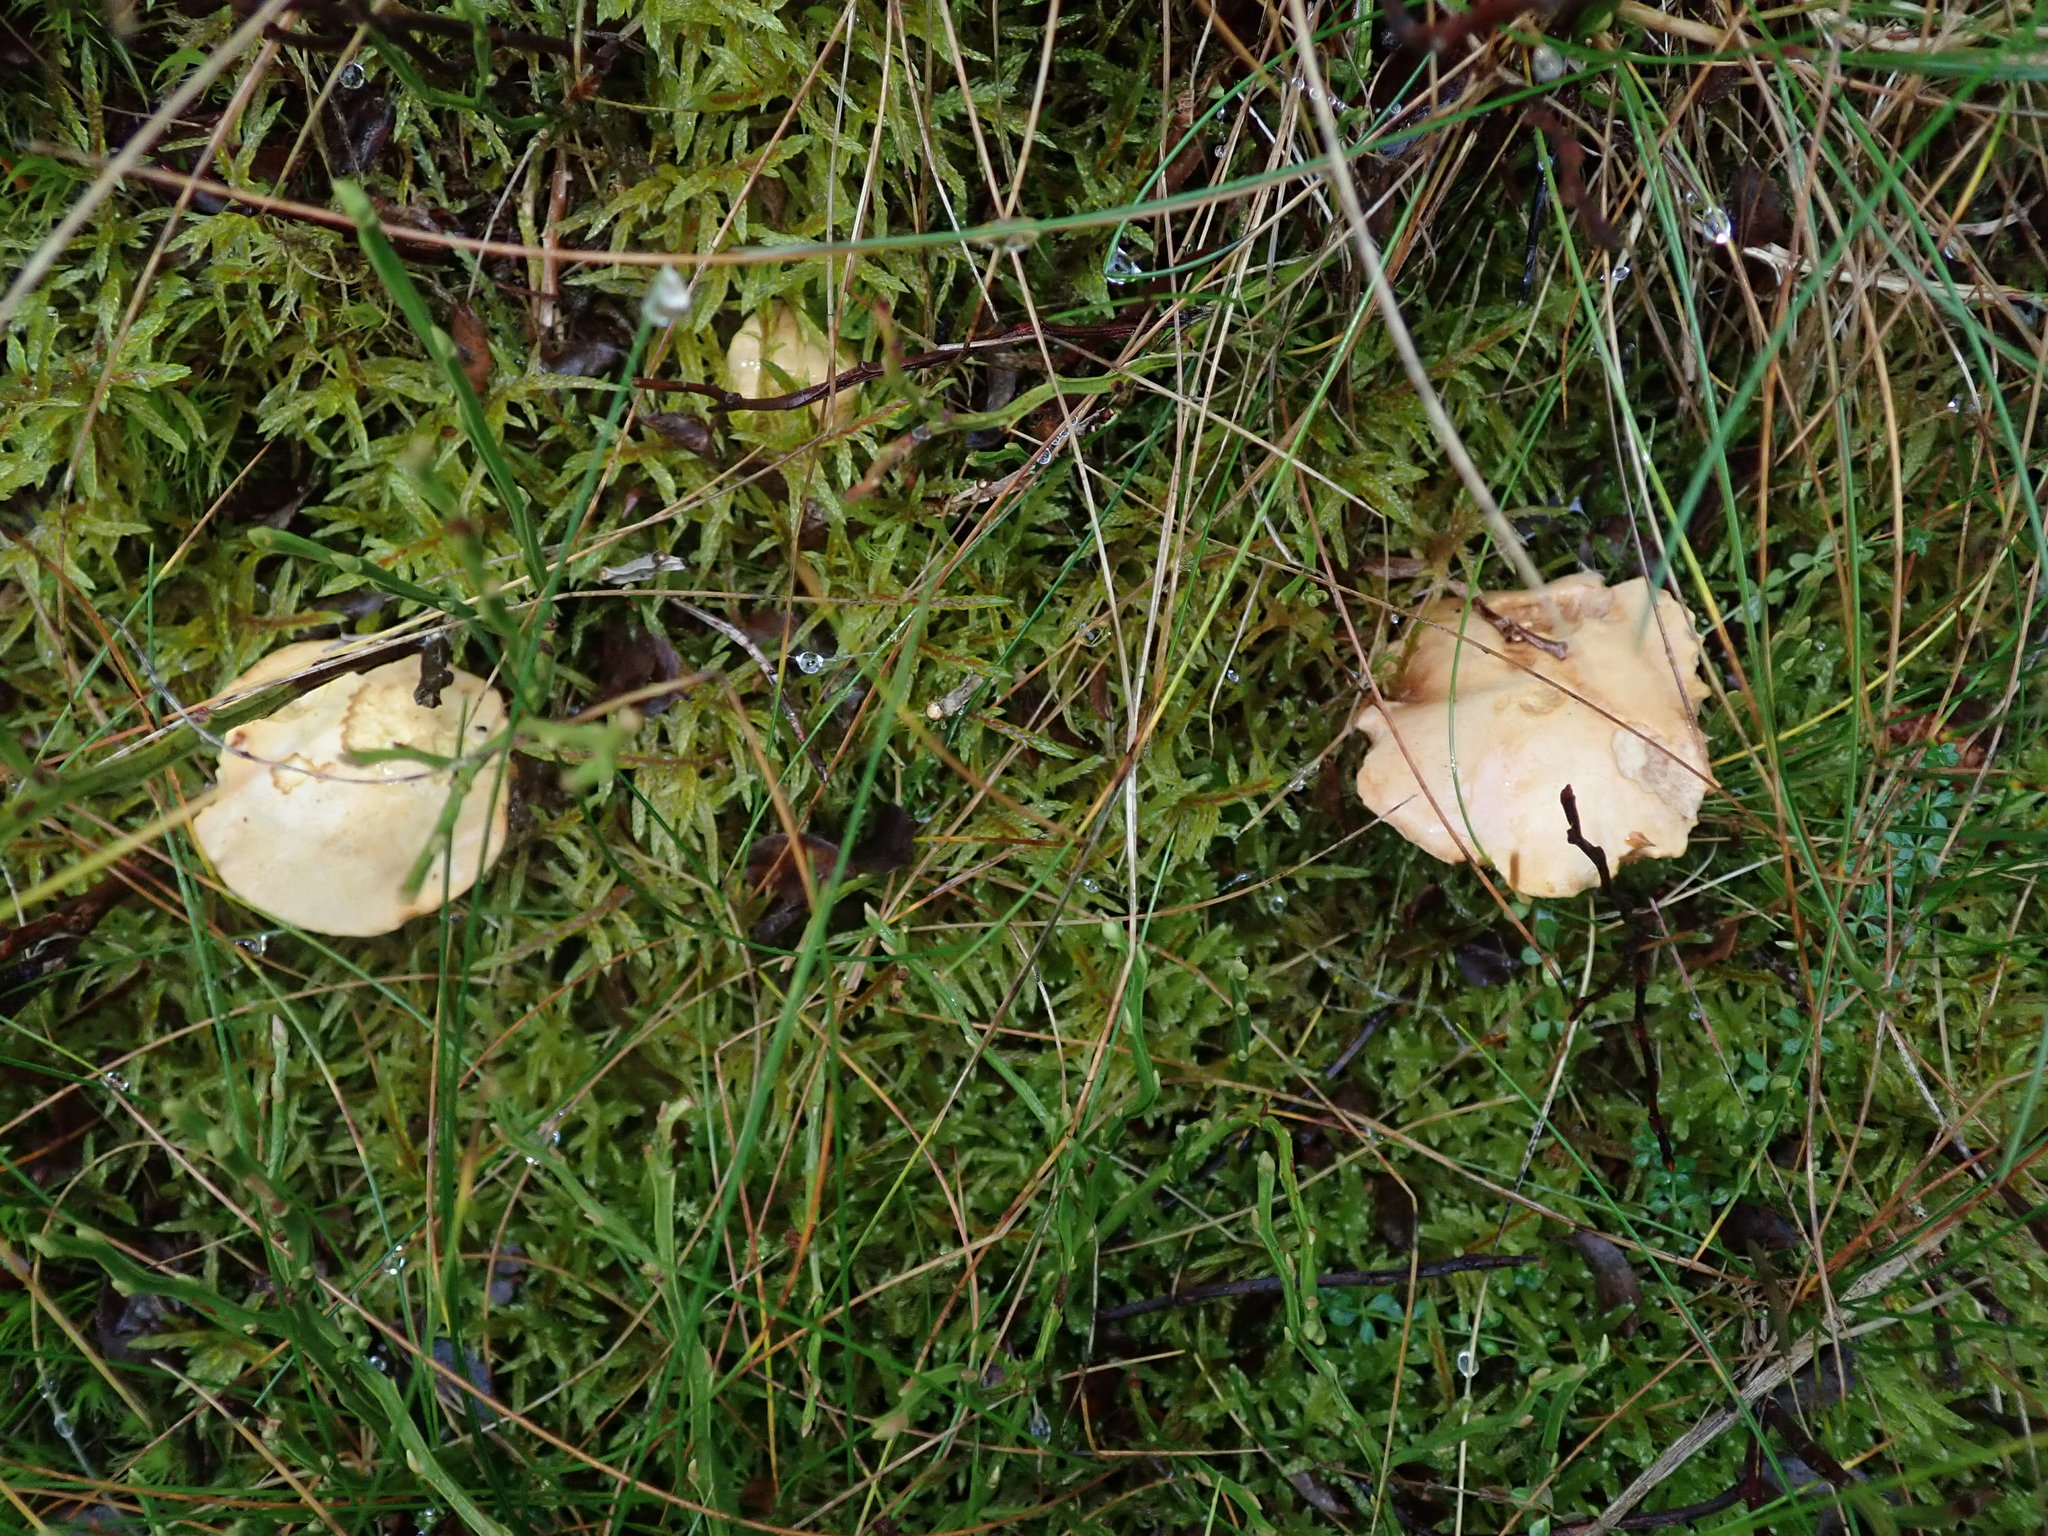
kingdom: Fungi
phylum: Basidiomycota
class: Agaricomycetes
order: Boletales
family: Boletaceae
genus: Chalciporus
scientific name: Chalciporus piperatus
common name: Peppery bolete
